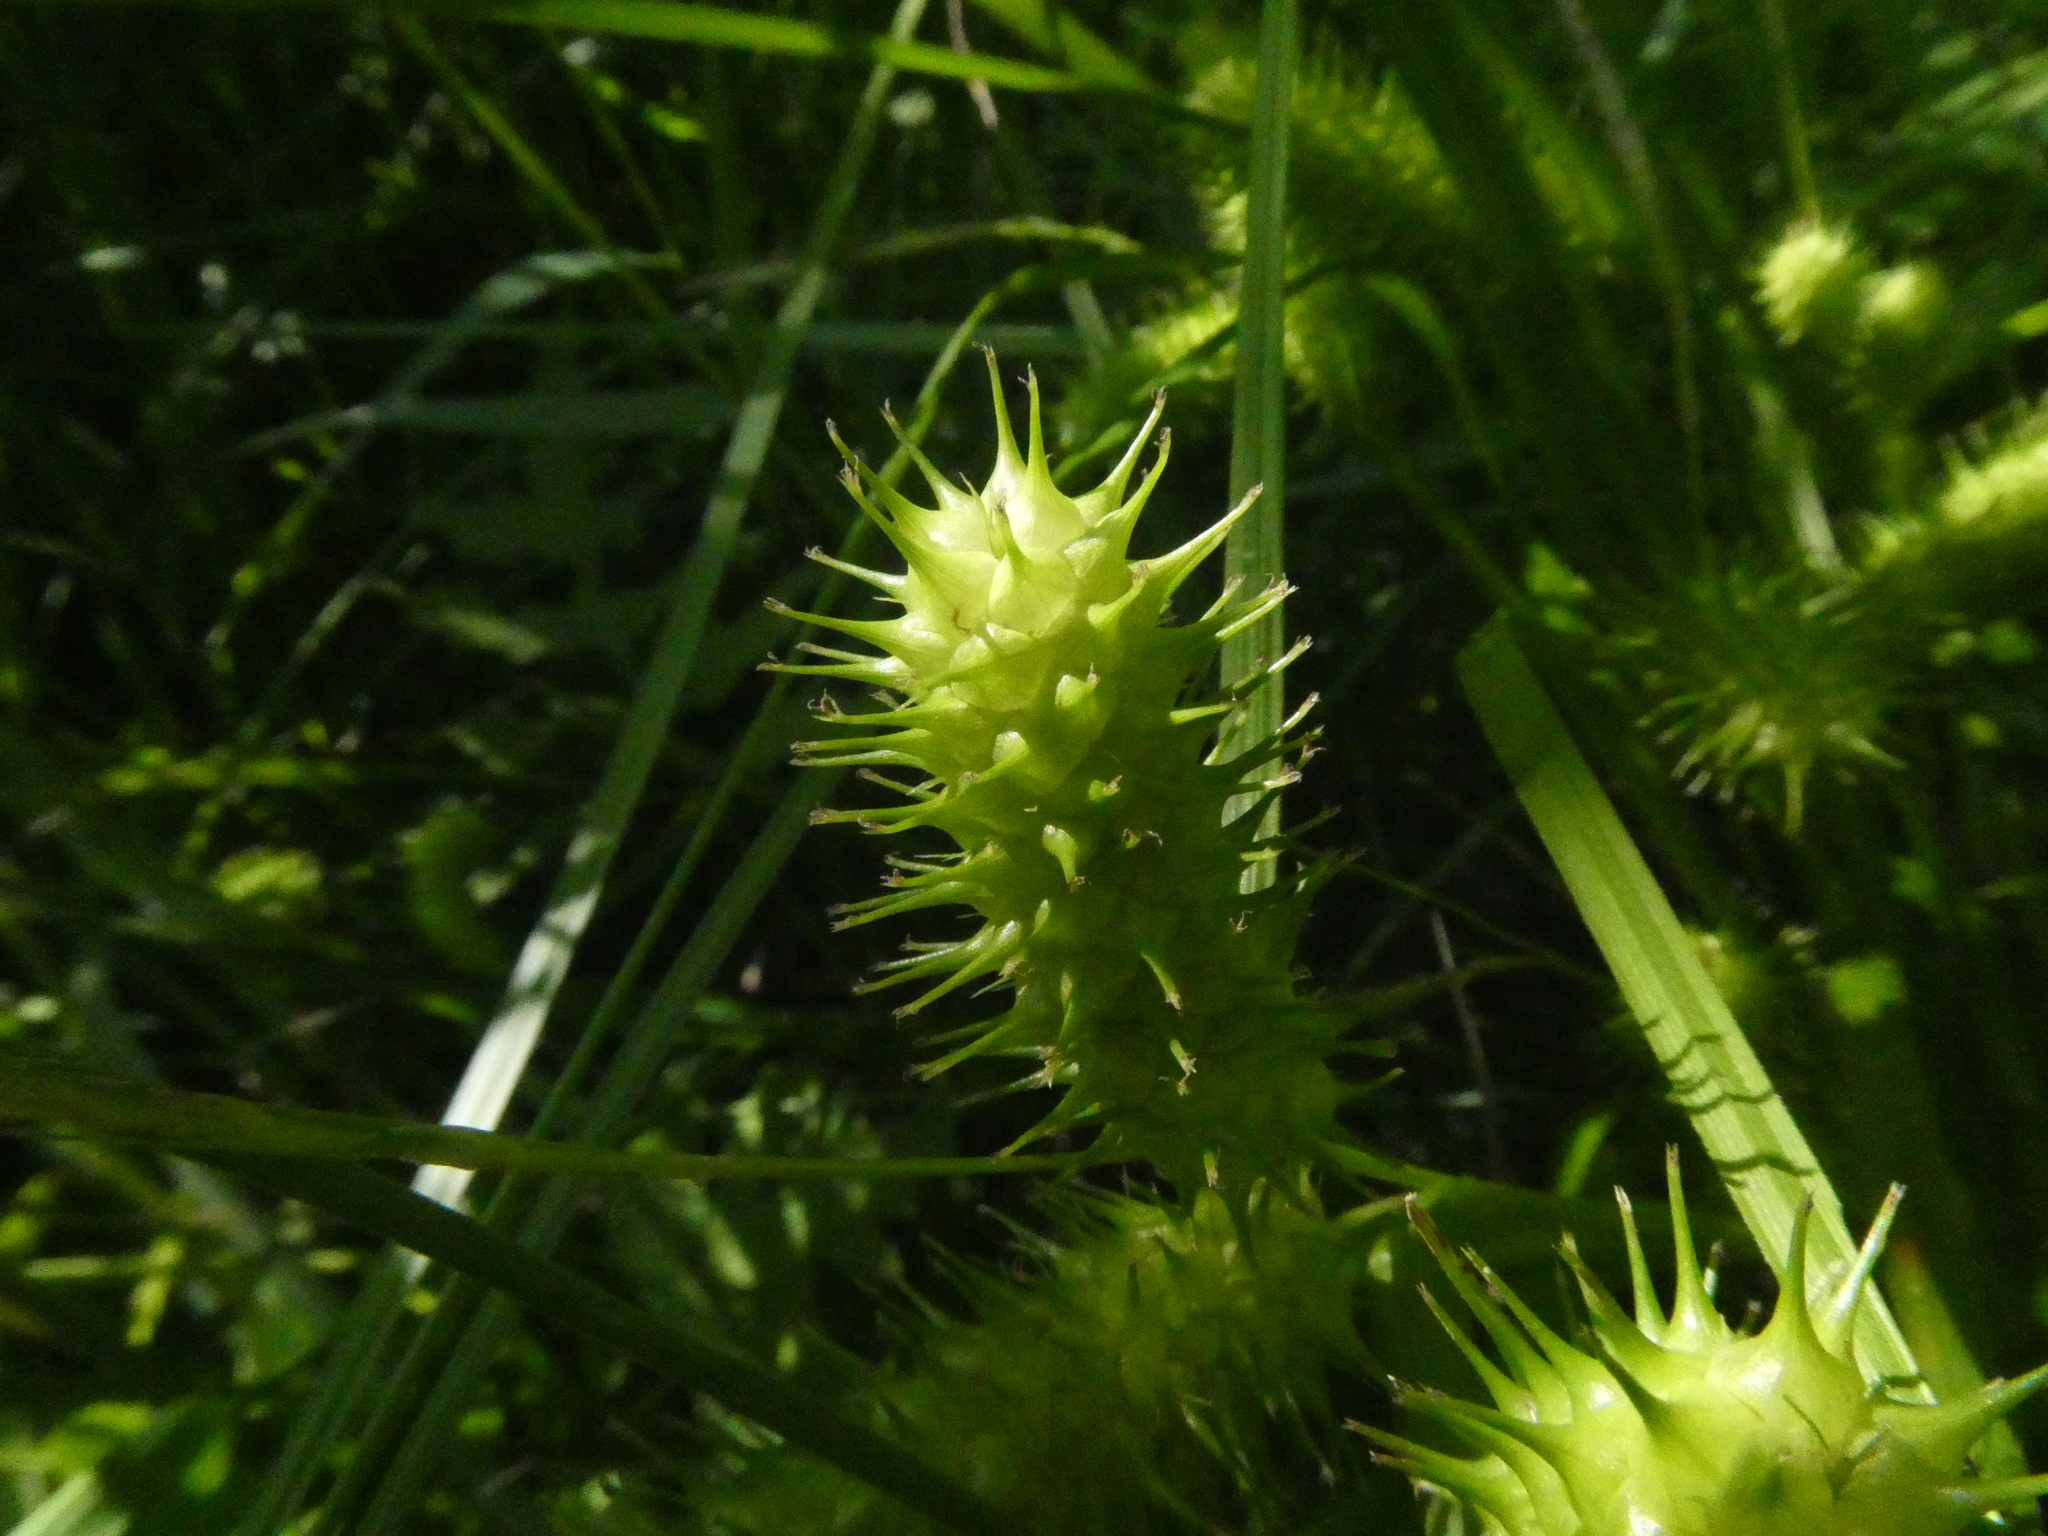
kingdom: Plantae
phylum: Tracheophyta
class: Liliopsida
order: Poales
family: Cyperaceae
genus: Carex
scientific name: Carex lurida
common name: Sallow sedge
